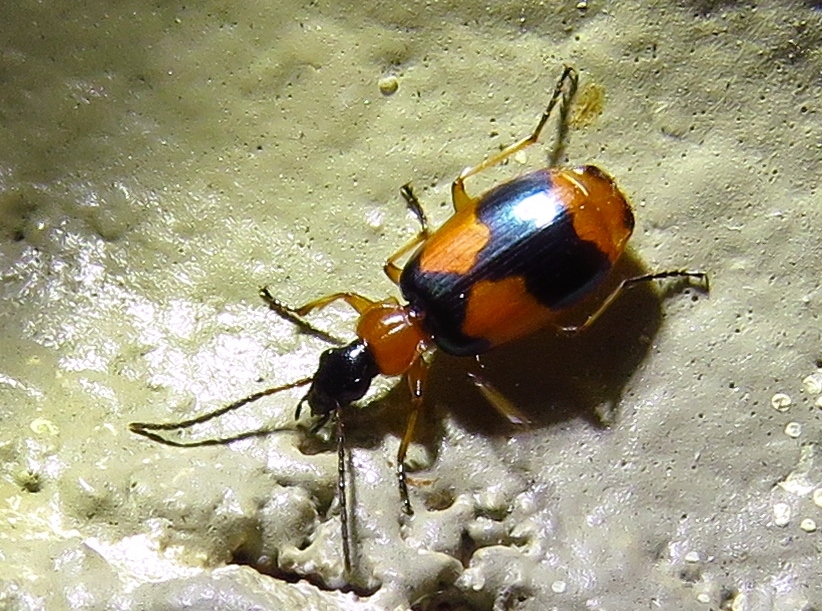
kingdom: Animalia
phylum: Arthropoda
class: Insecta
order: Coleoptera
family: Carabidae
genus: Lebia
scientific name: Lebia pulchella
